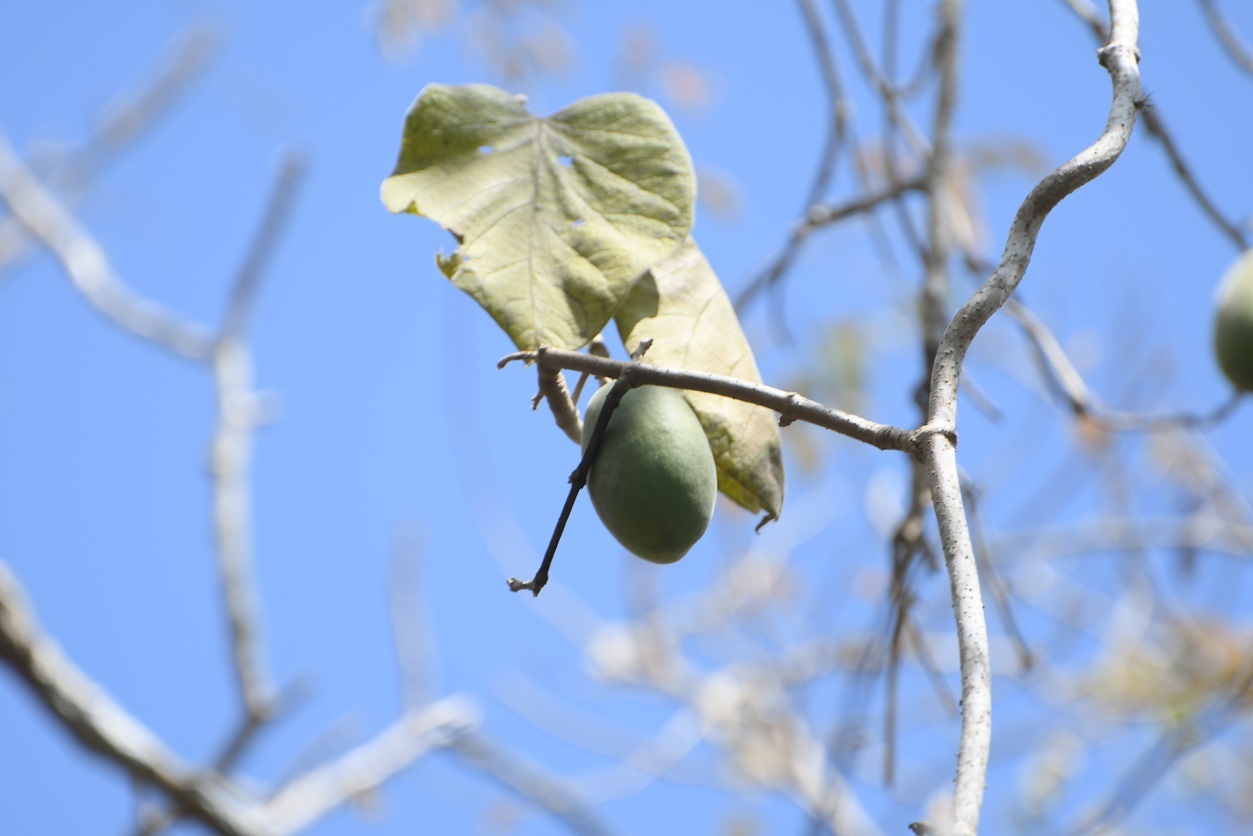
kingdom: Plantae
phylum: Tracheophyta
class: Magnoliopsida
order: Gentianales
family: Apocynaceae
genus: Ruehssia
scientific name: Ruehssia gualanensis
